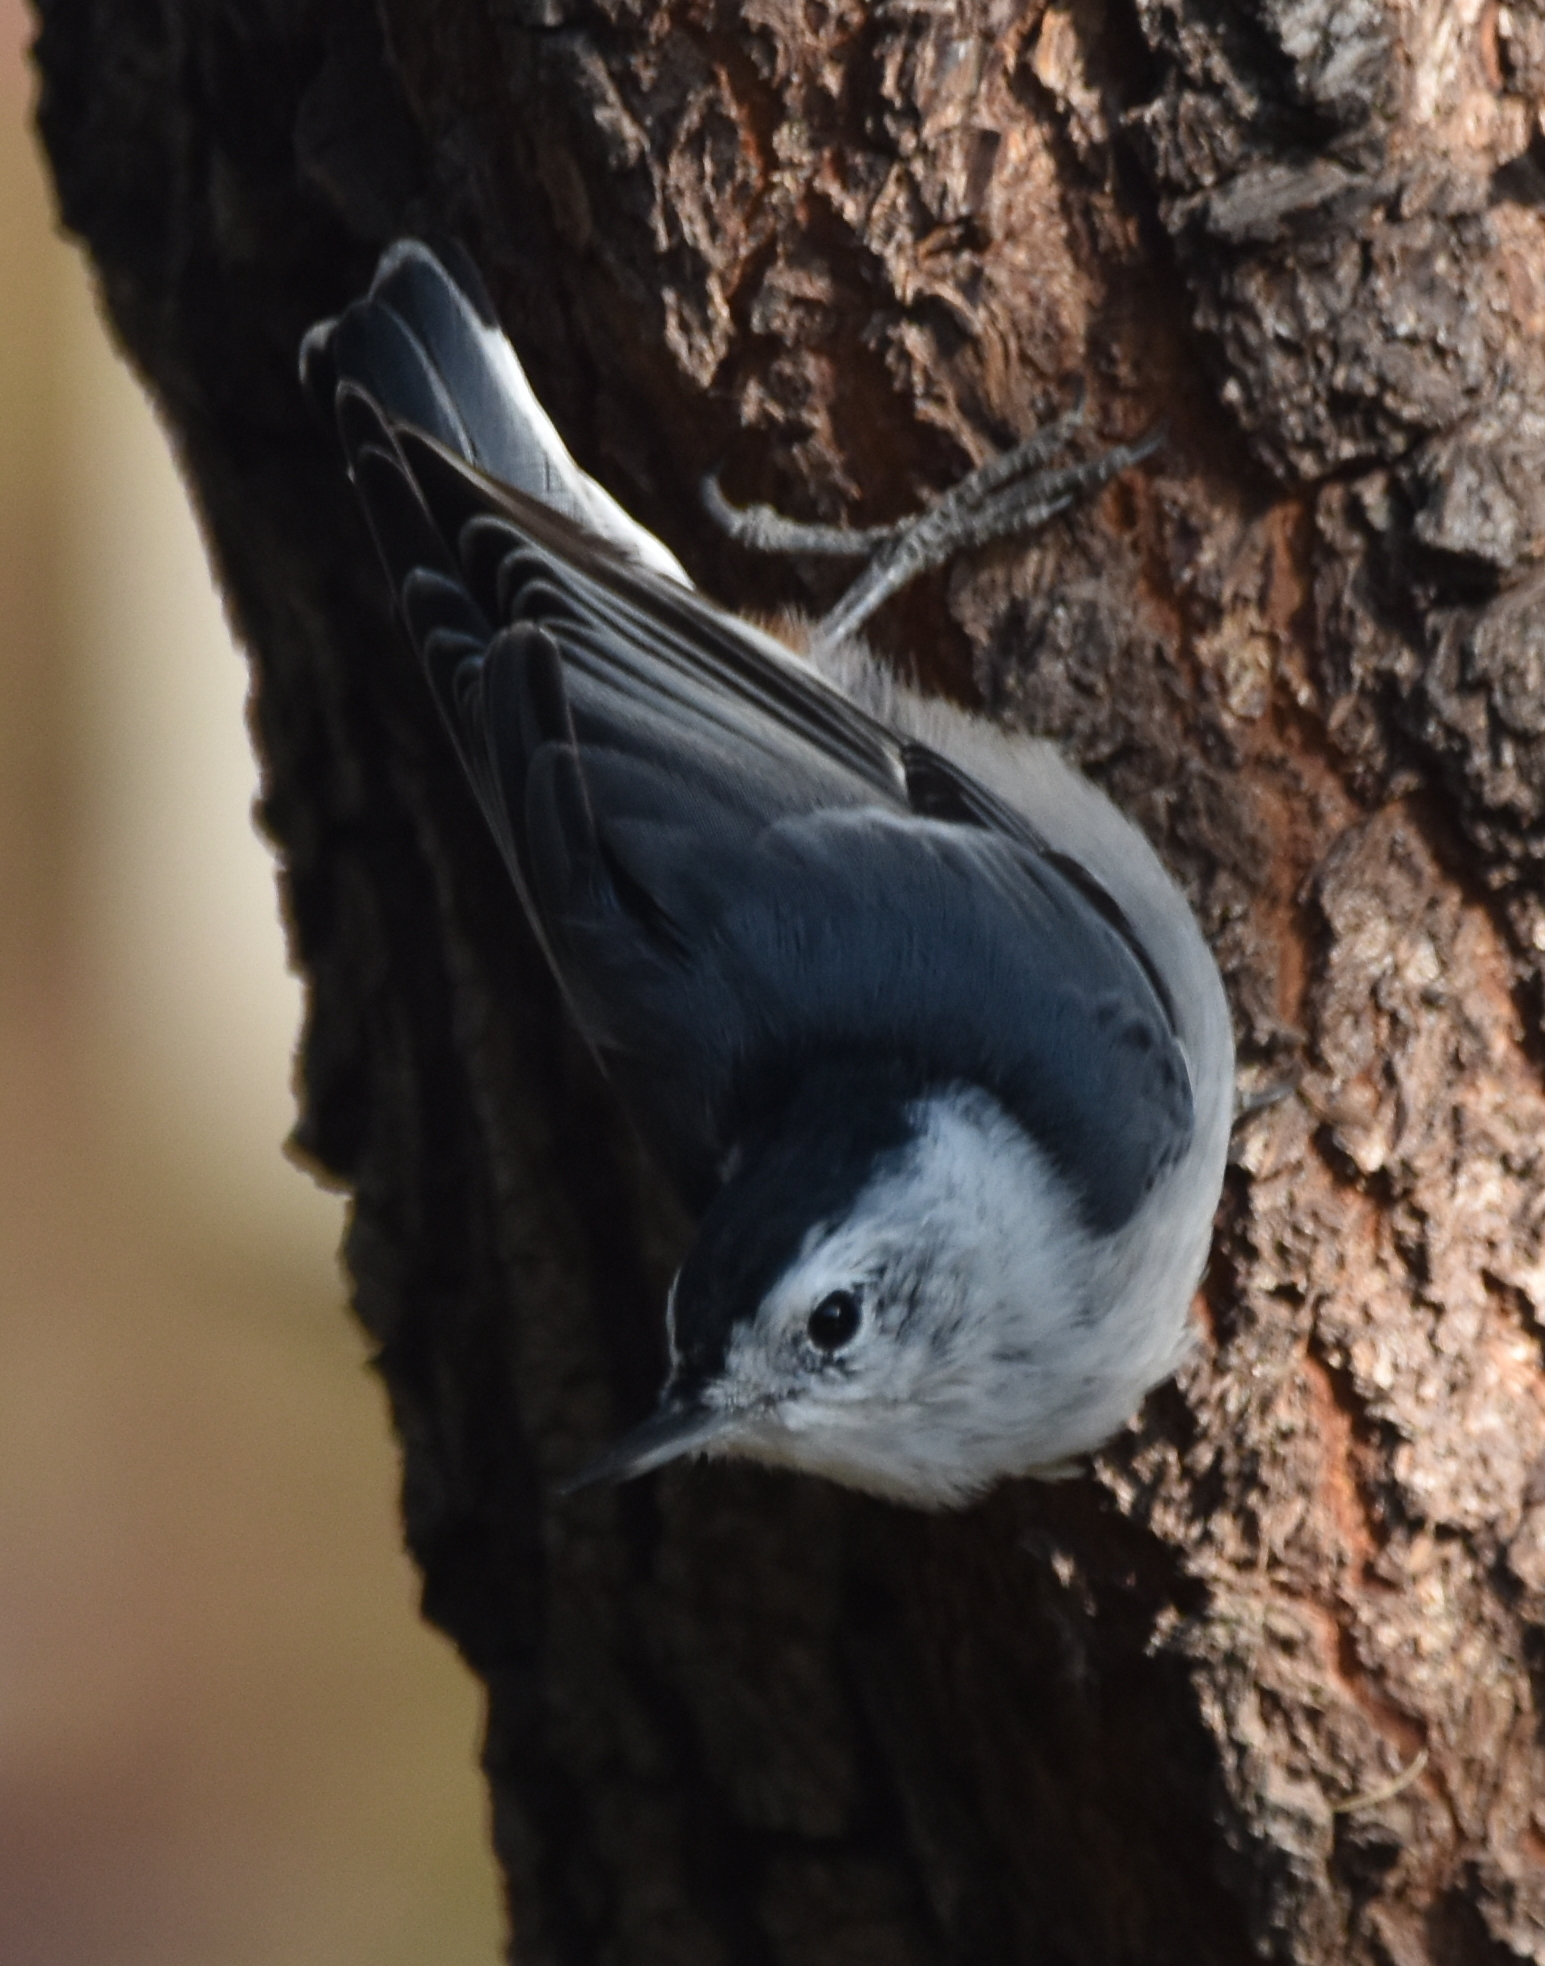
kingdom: Animalia
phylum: Chordata
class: Aves
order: Passeriformes
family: Sittidae
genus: Sitta
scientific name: Sitta carolinensis
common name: White-breasted nuthatch
